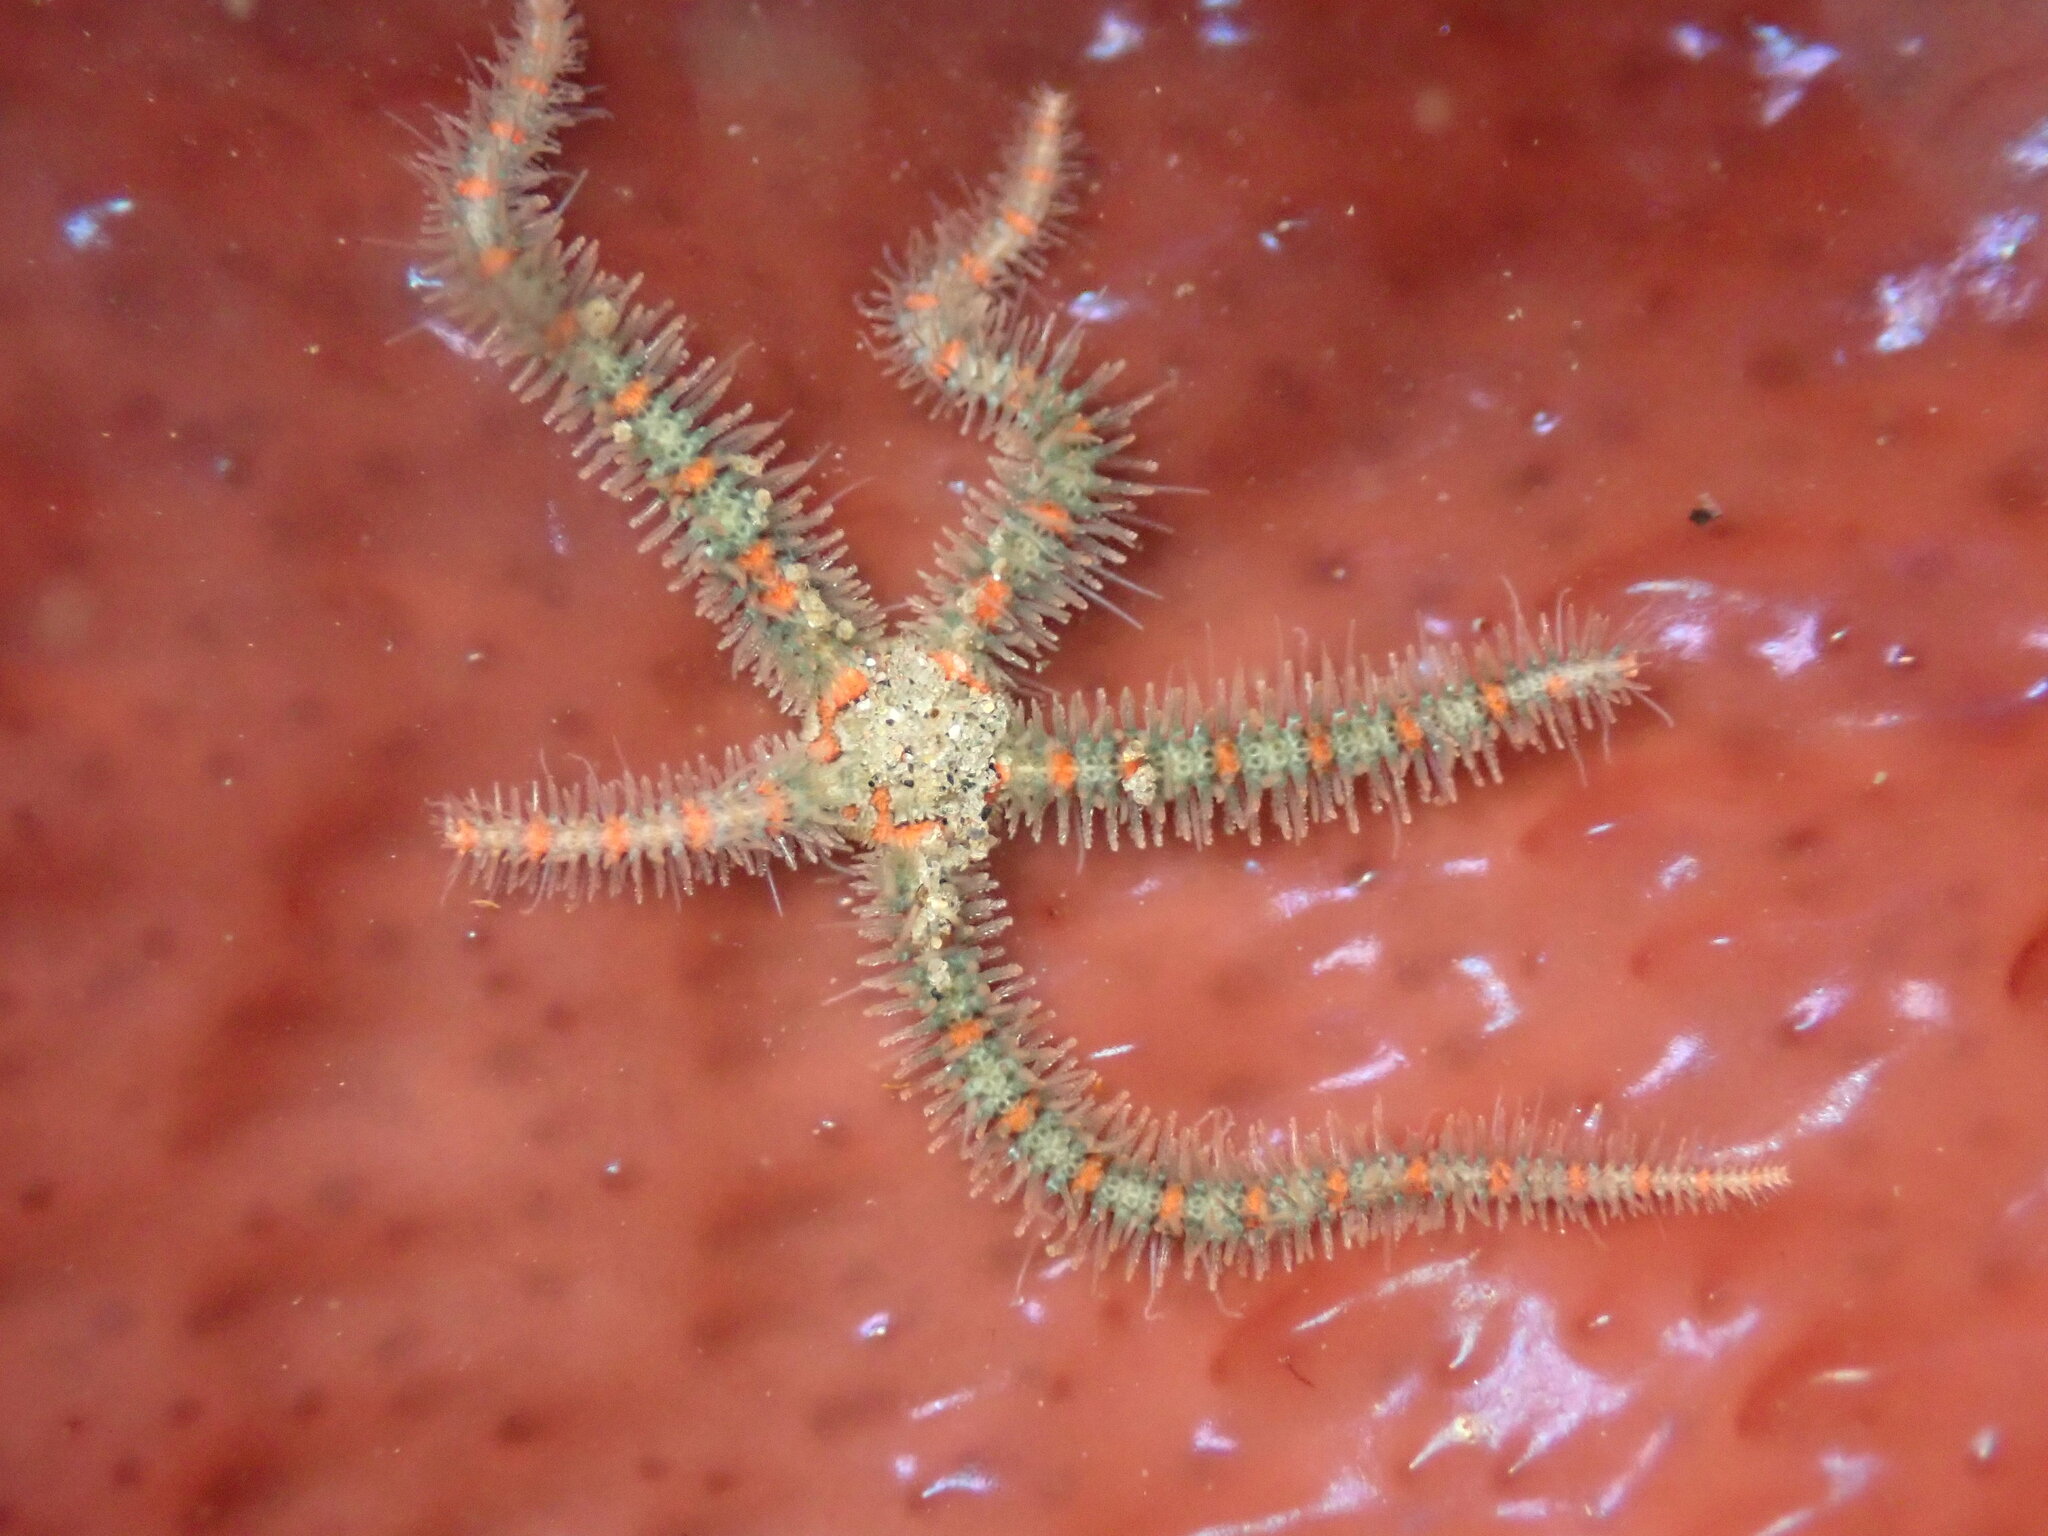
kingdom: Animalia
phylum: Echinodermata
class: Ophiuroidea
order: Amphilepidida
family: Ophiotrichidae
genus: Ophiothrix
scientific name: Ophiothrix spiculata
